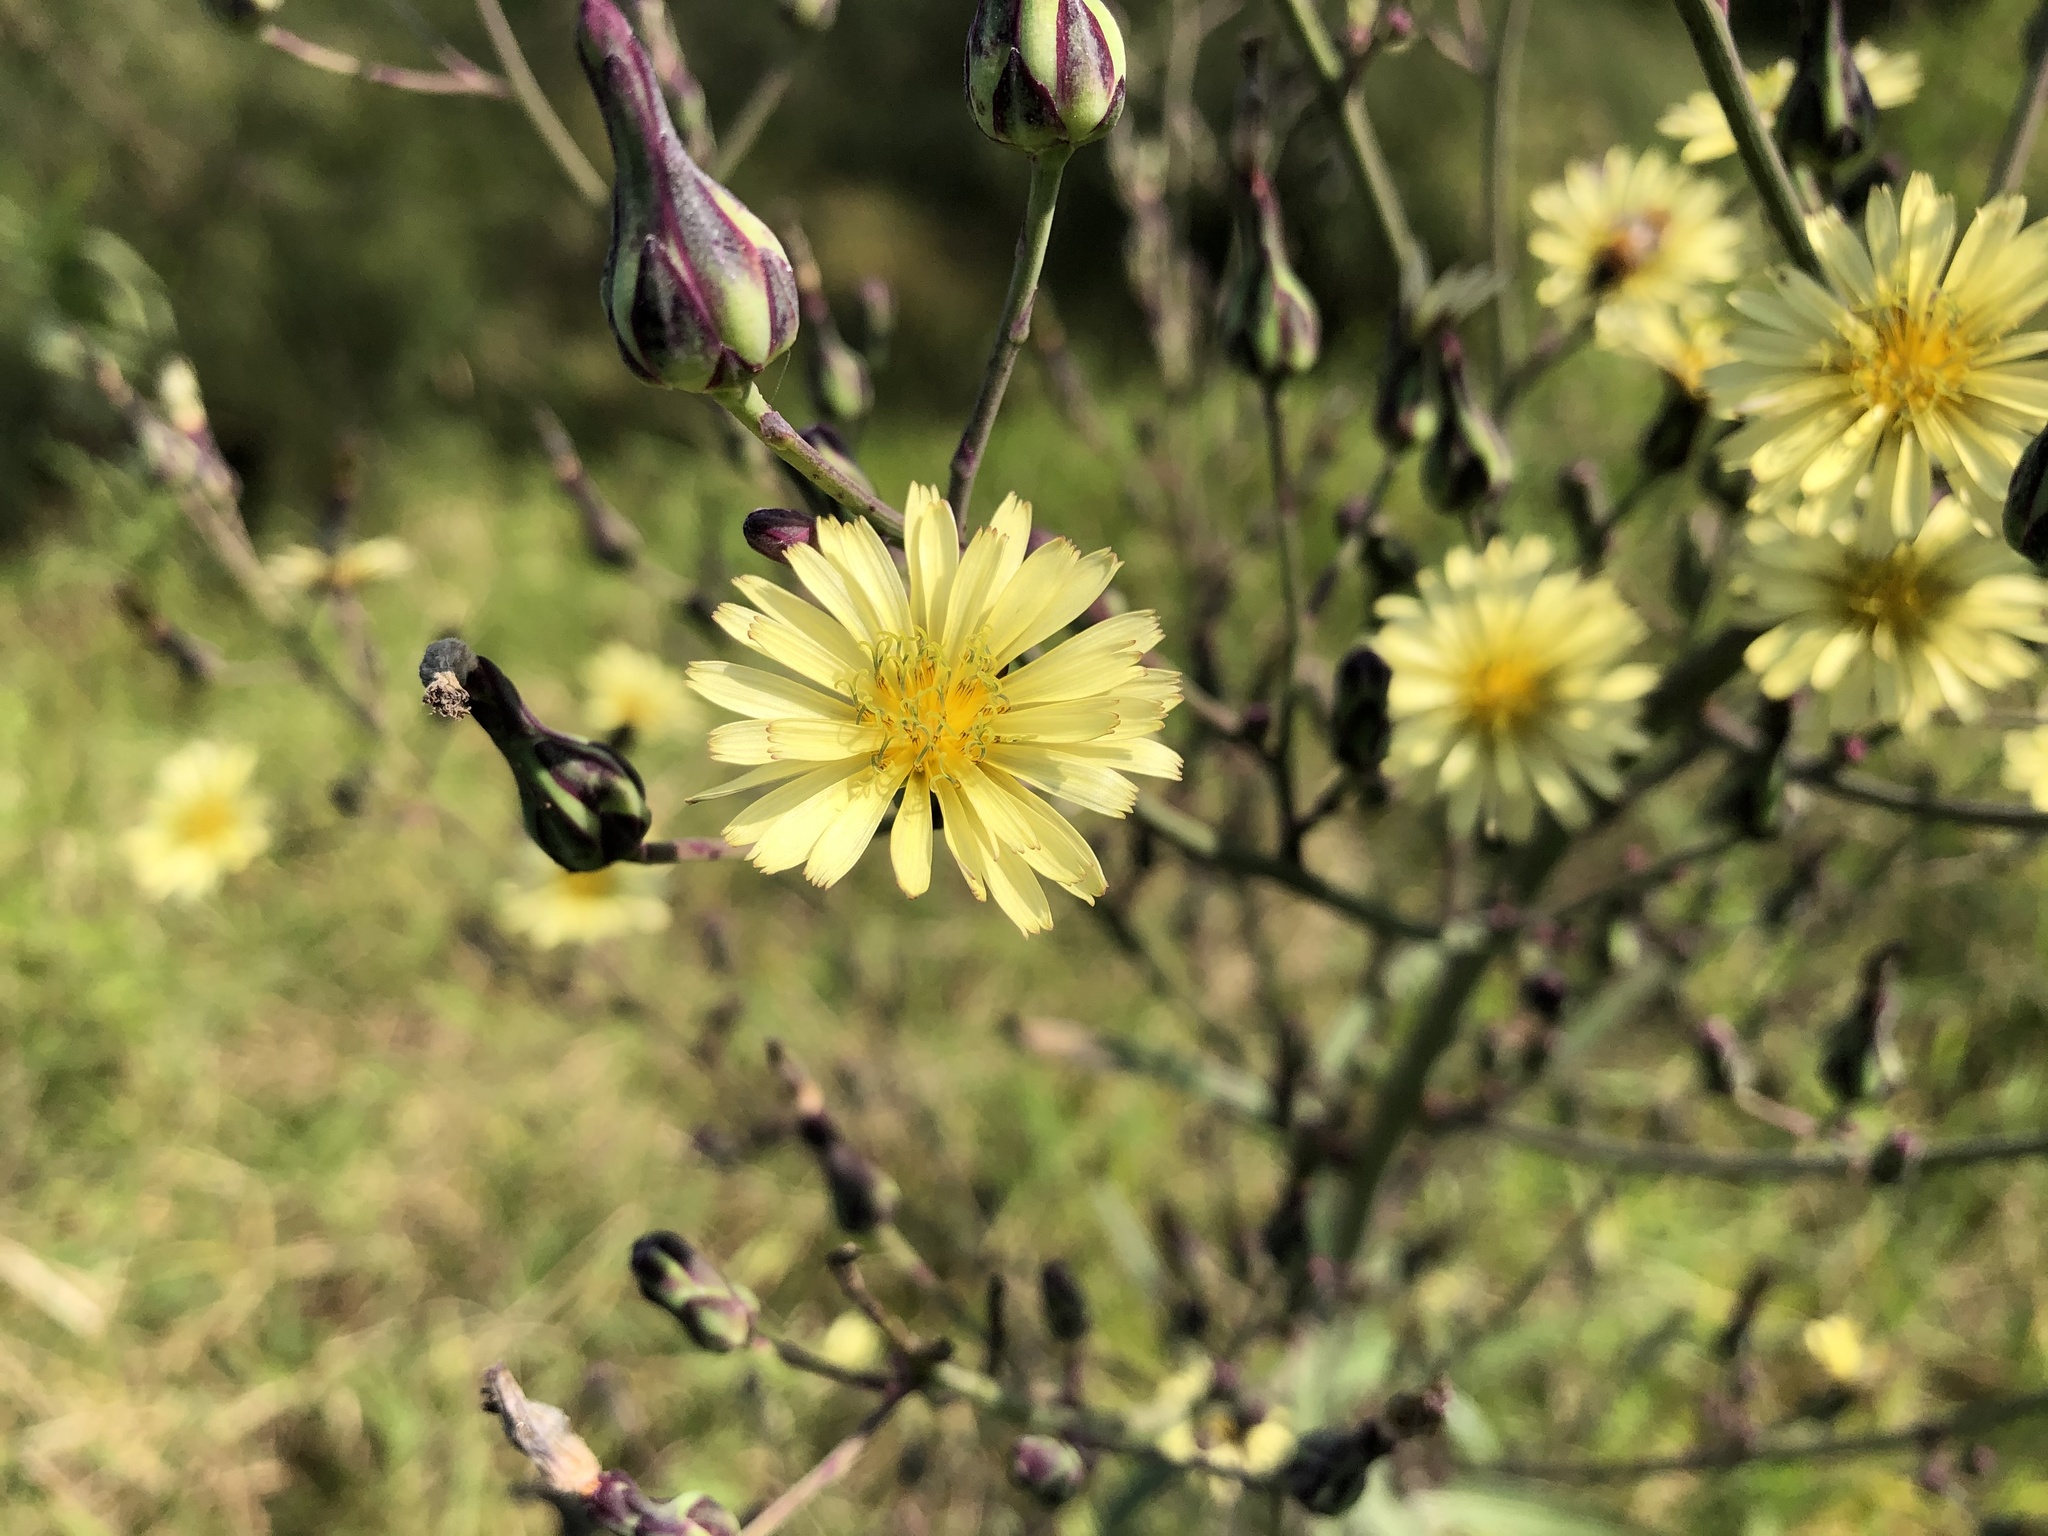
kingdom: Plantae
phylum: Tracheophyta
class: Magnoliopsida
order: Asterales
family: Asteraceae
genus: Lactuca
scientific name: Lactuca indica
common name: Wild lettuce
